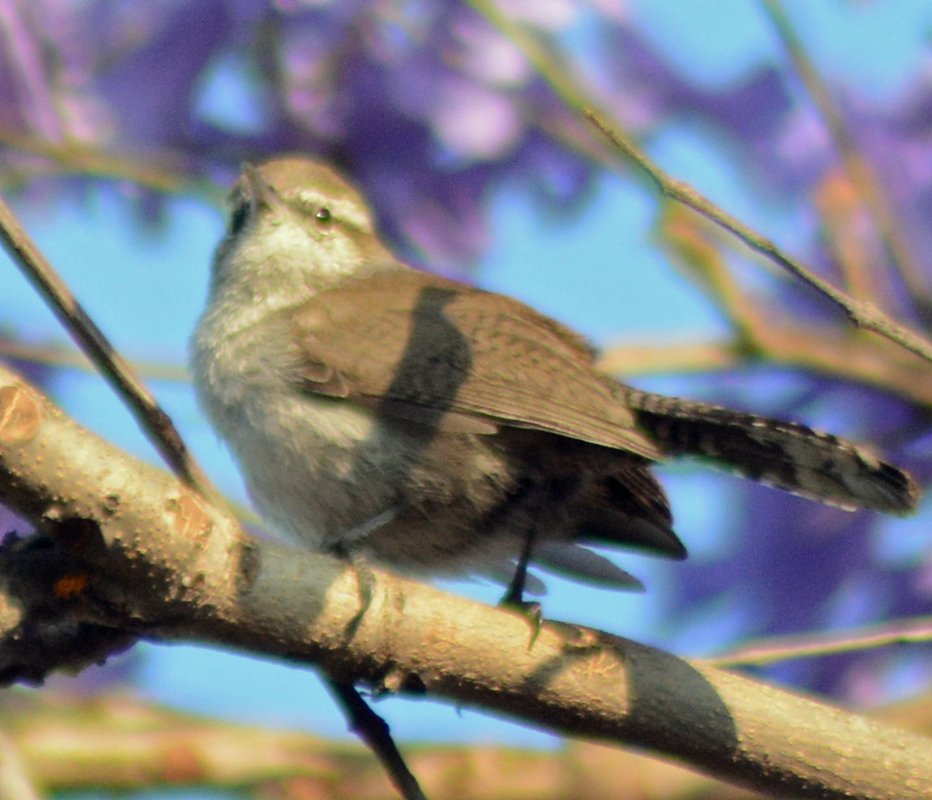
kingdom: Animalia
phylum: Chordata
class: Aves
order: Passeriformes
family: Troglodytidae
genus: Thryomanes
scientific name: Thryomanes bewickii
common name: Bewick's wren
